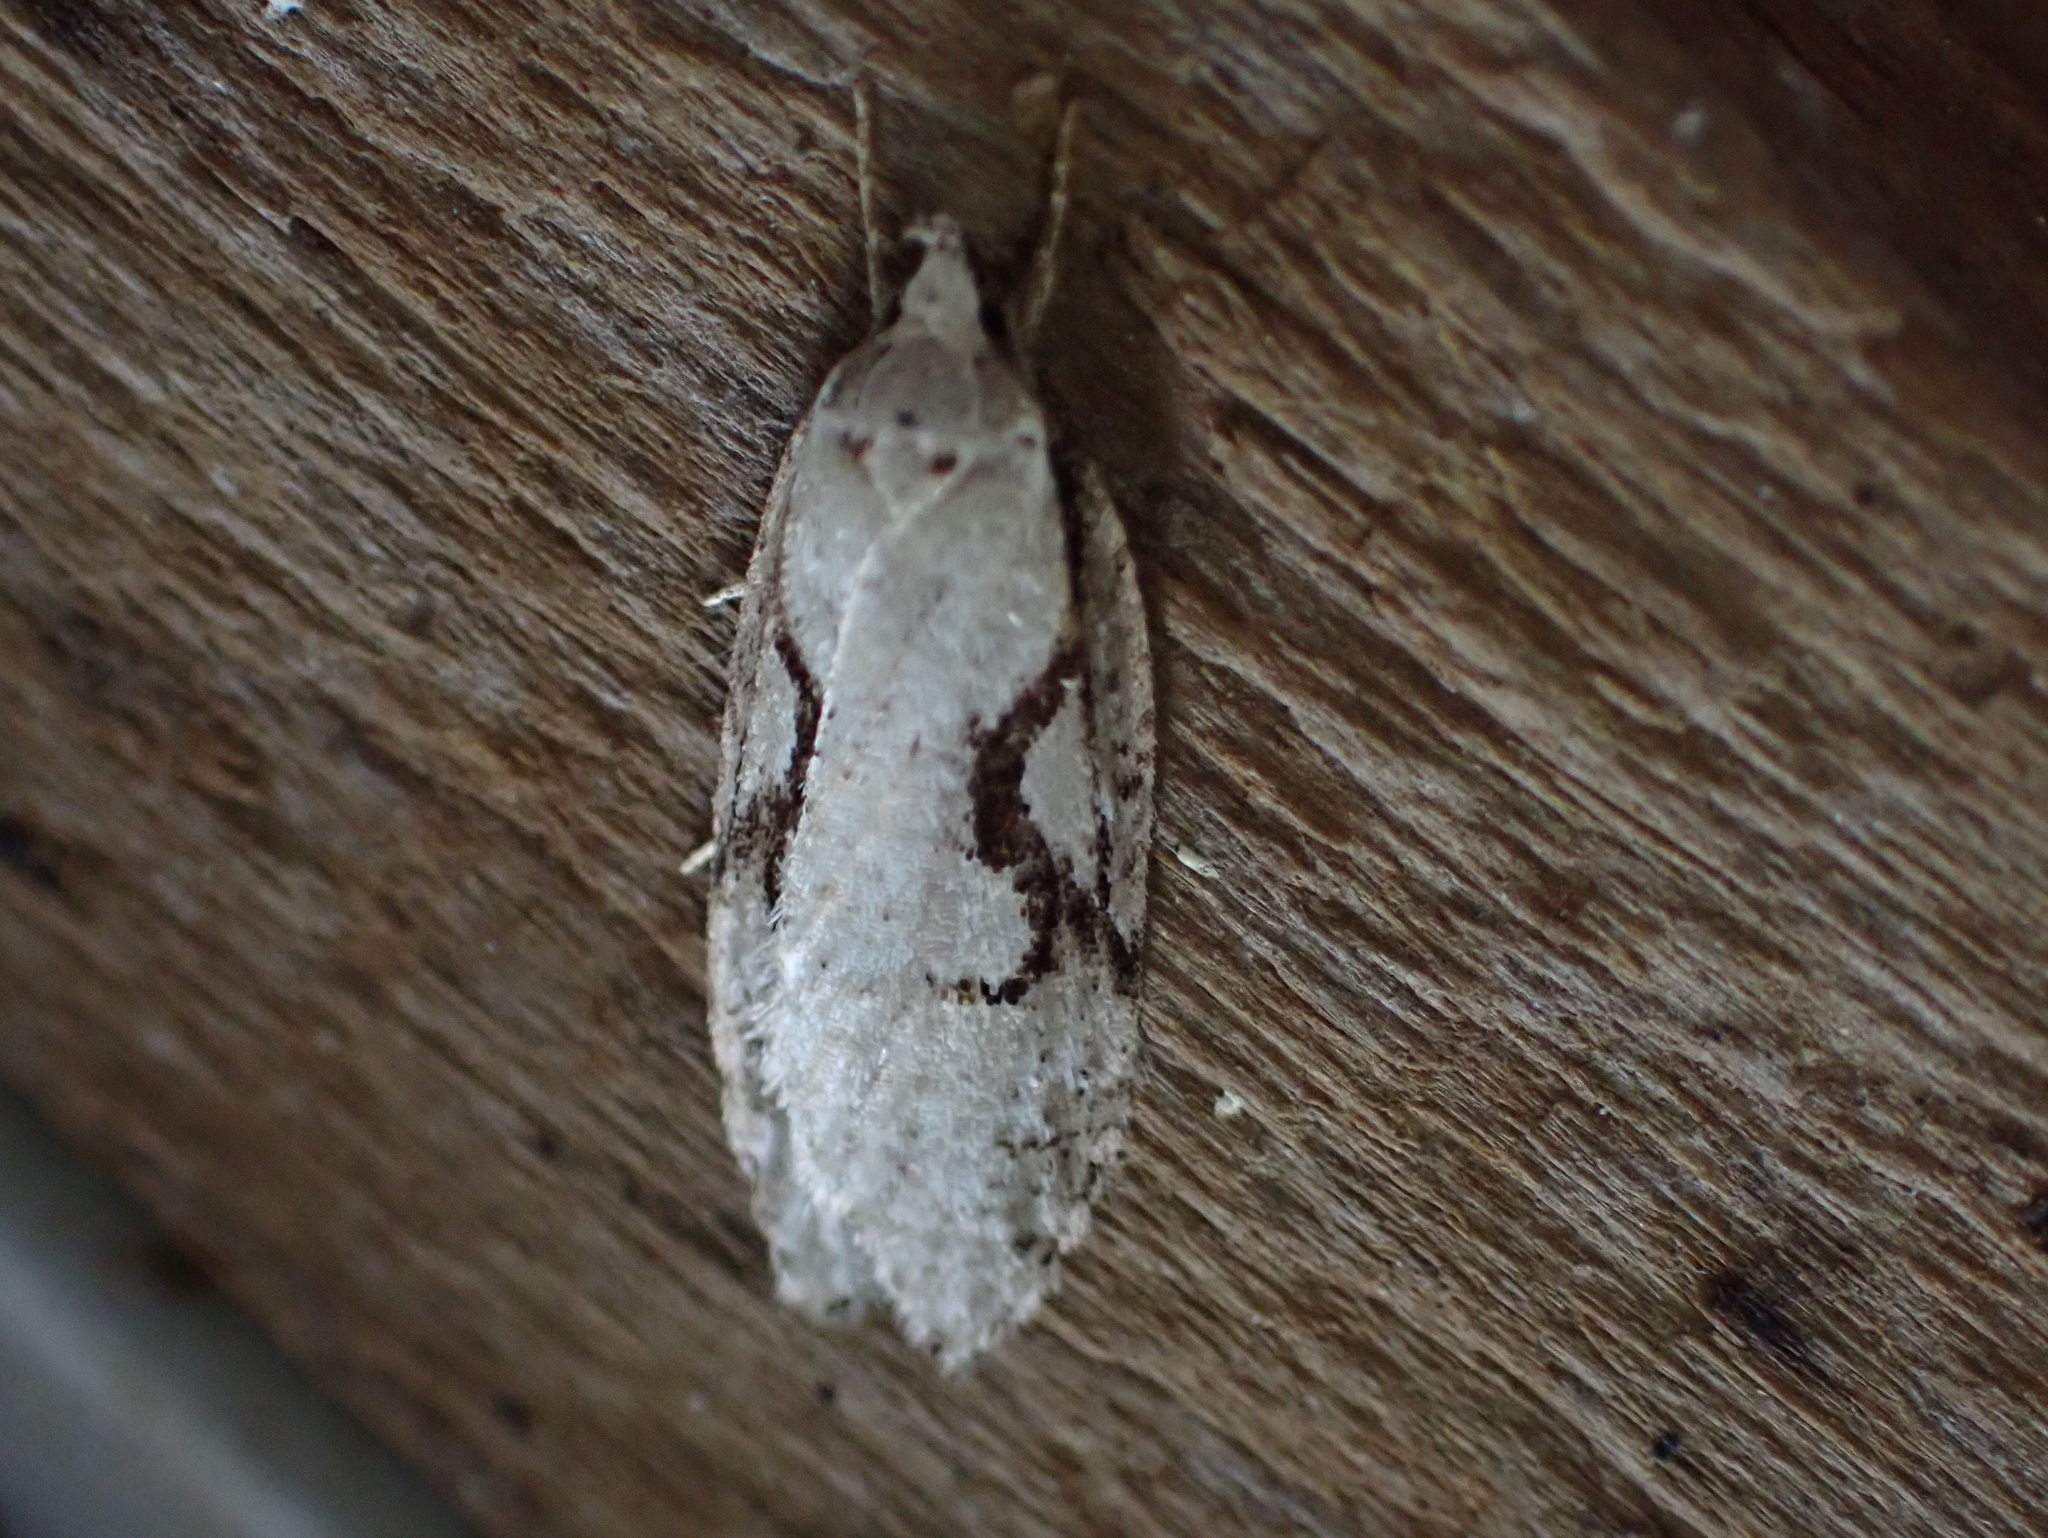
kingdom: Animalia
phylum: Arthropoda
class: Insecta
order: Lepidoptera
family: Depressariidae
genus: Semioscopis
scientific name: Semioscopis packardella
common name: Packard's concealer moth
